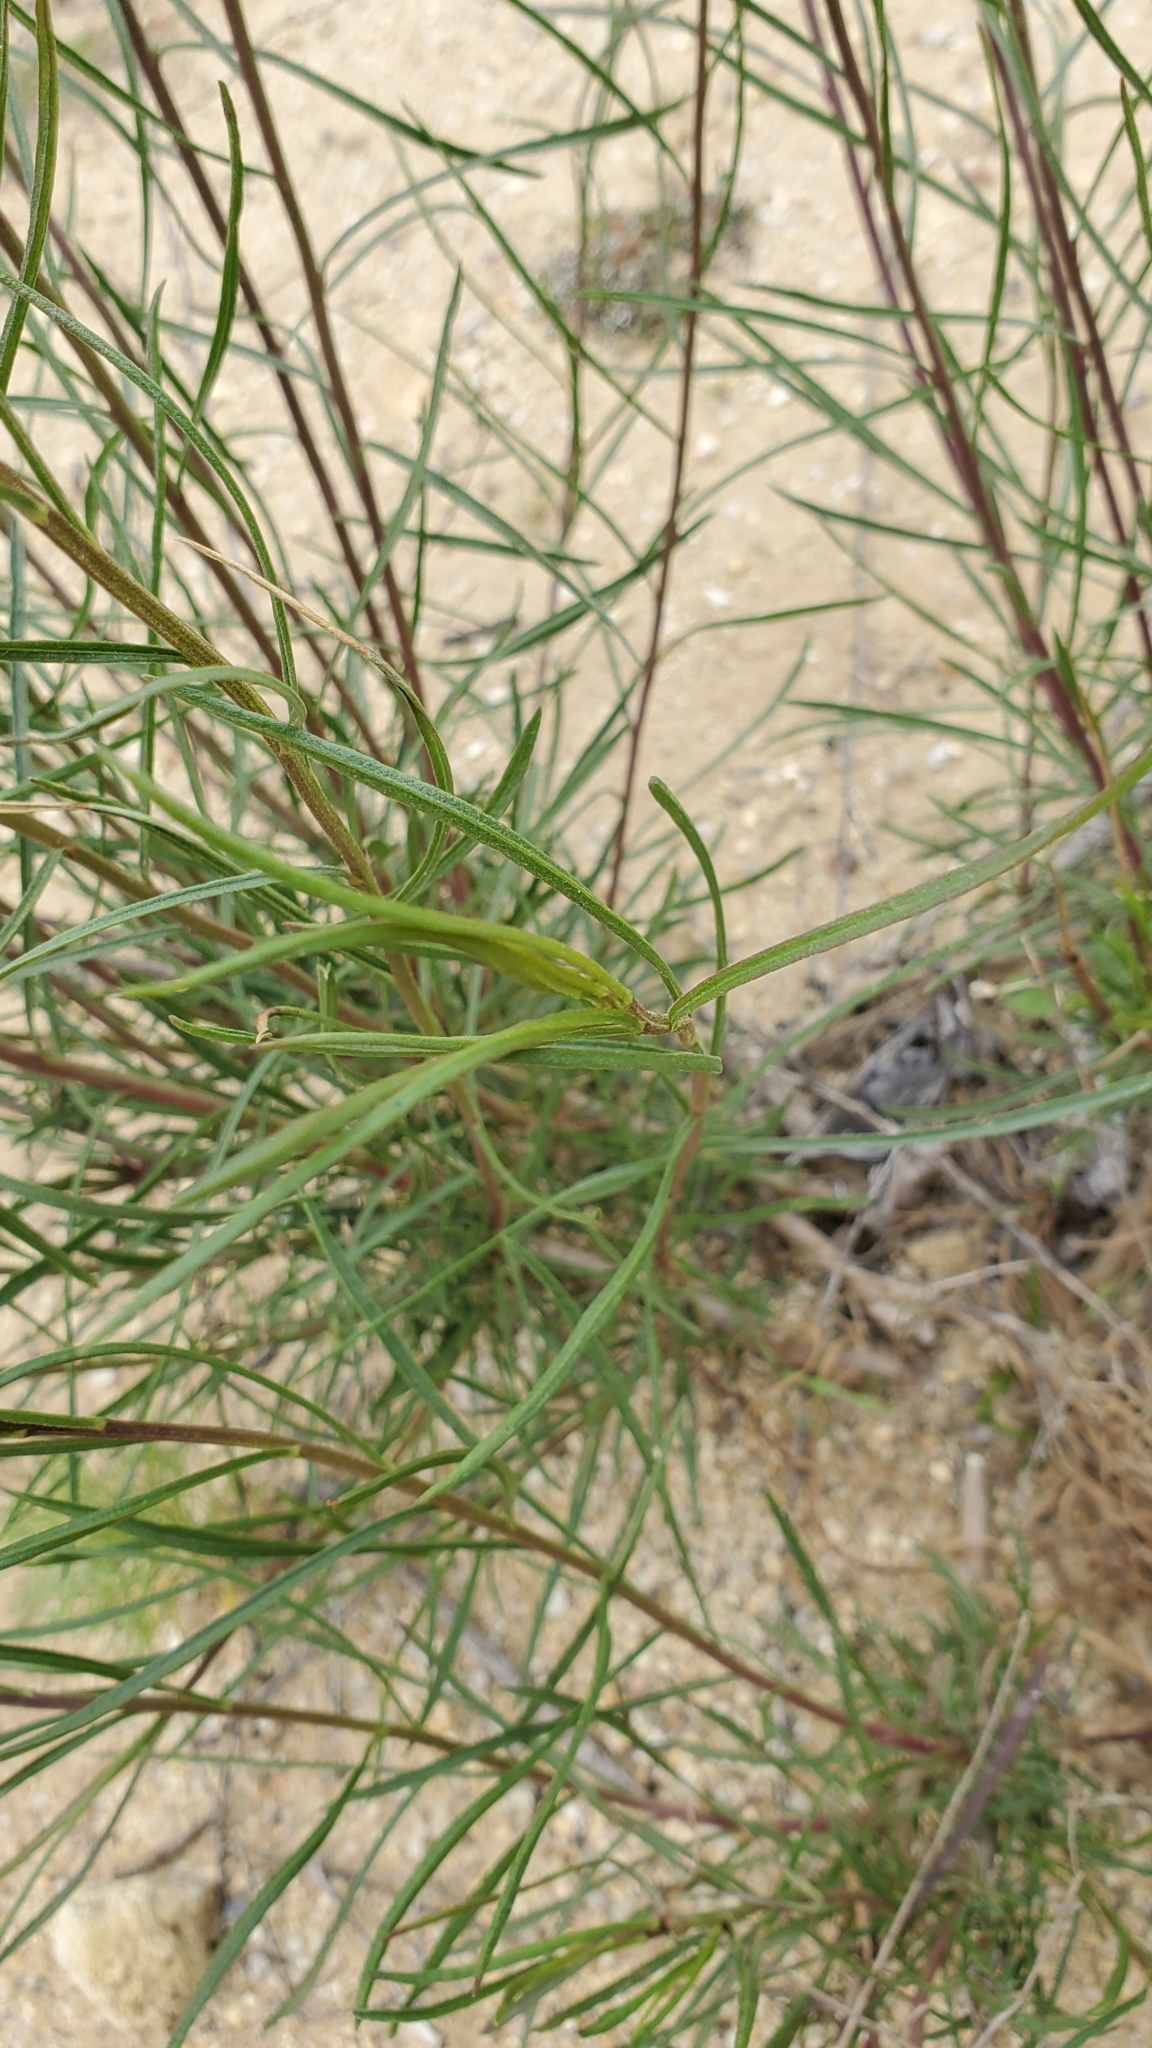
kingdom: Plantae
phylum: Tracheophyta
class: Magnoliopsida
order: Asterales
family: Asteraceae
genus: Gutierrezia
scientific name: Gutierrezia californica
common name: California matchweed
